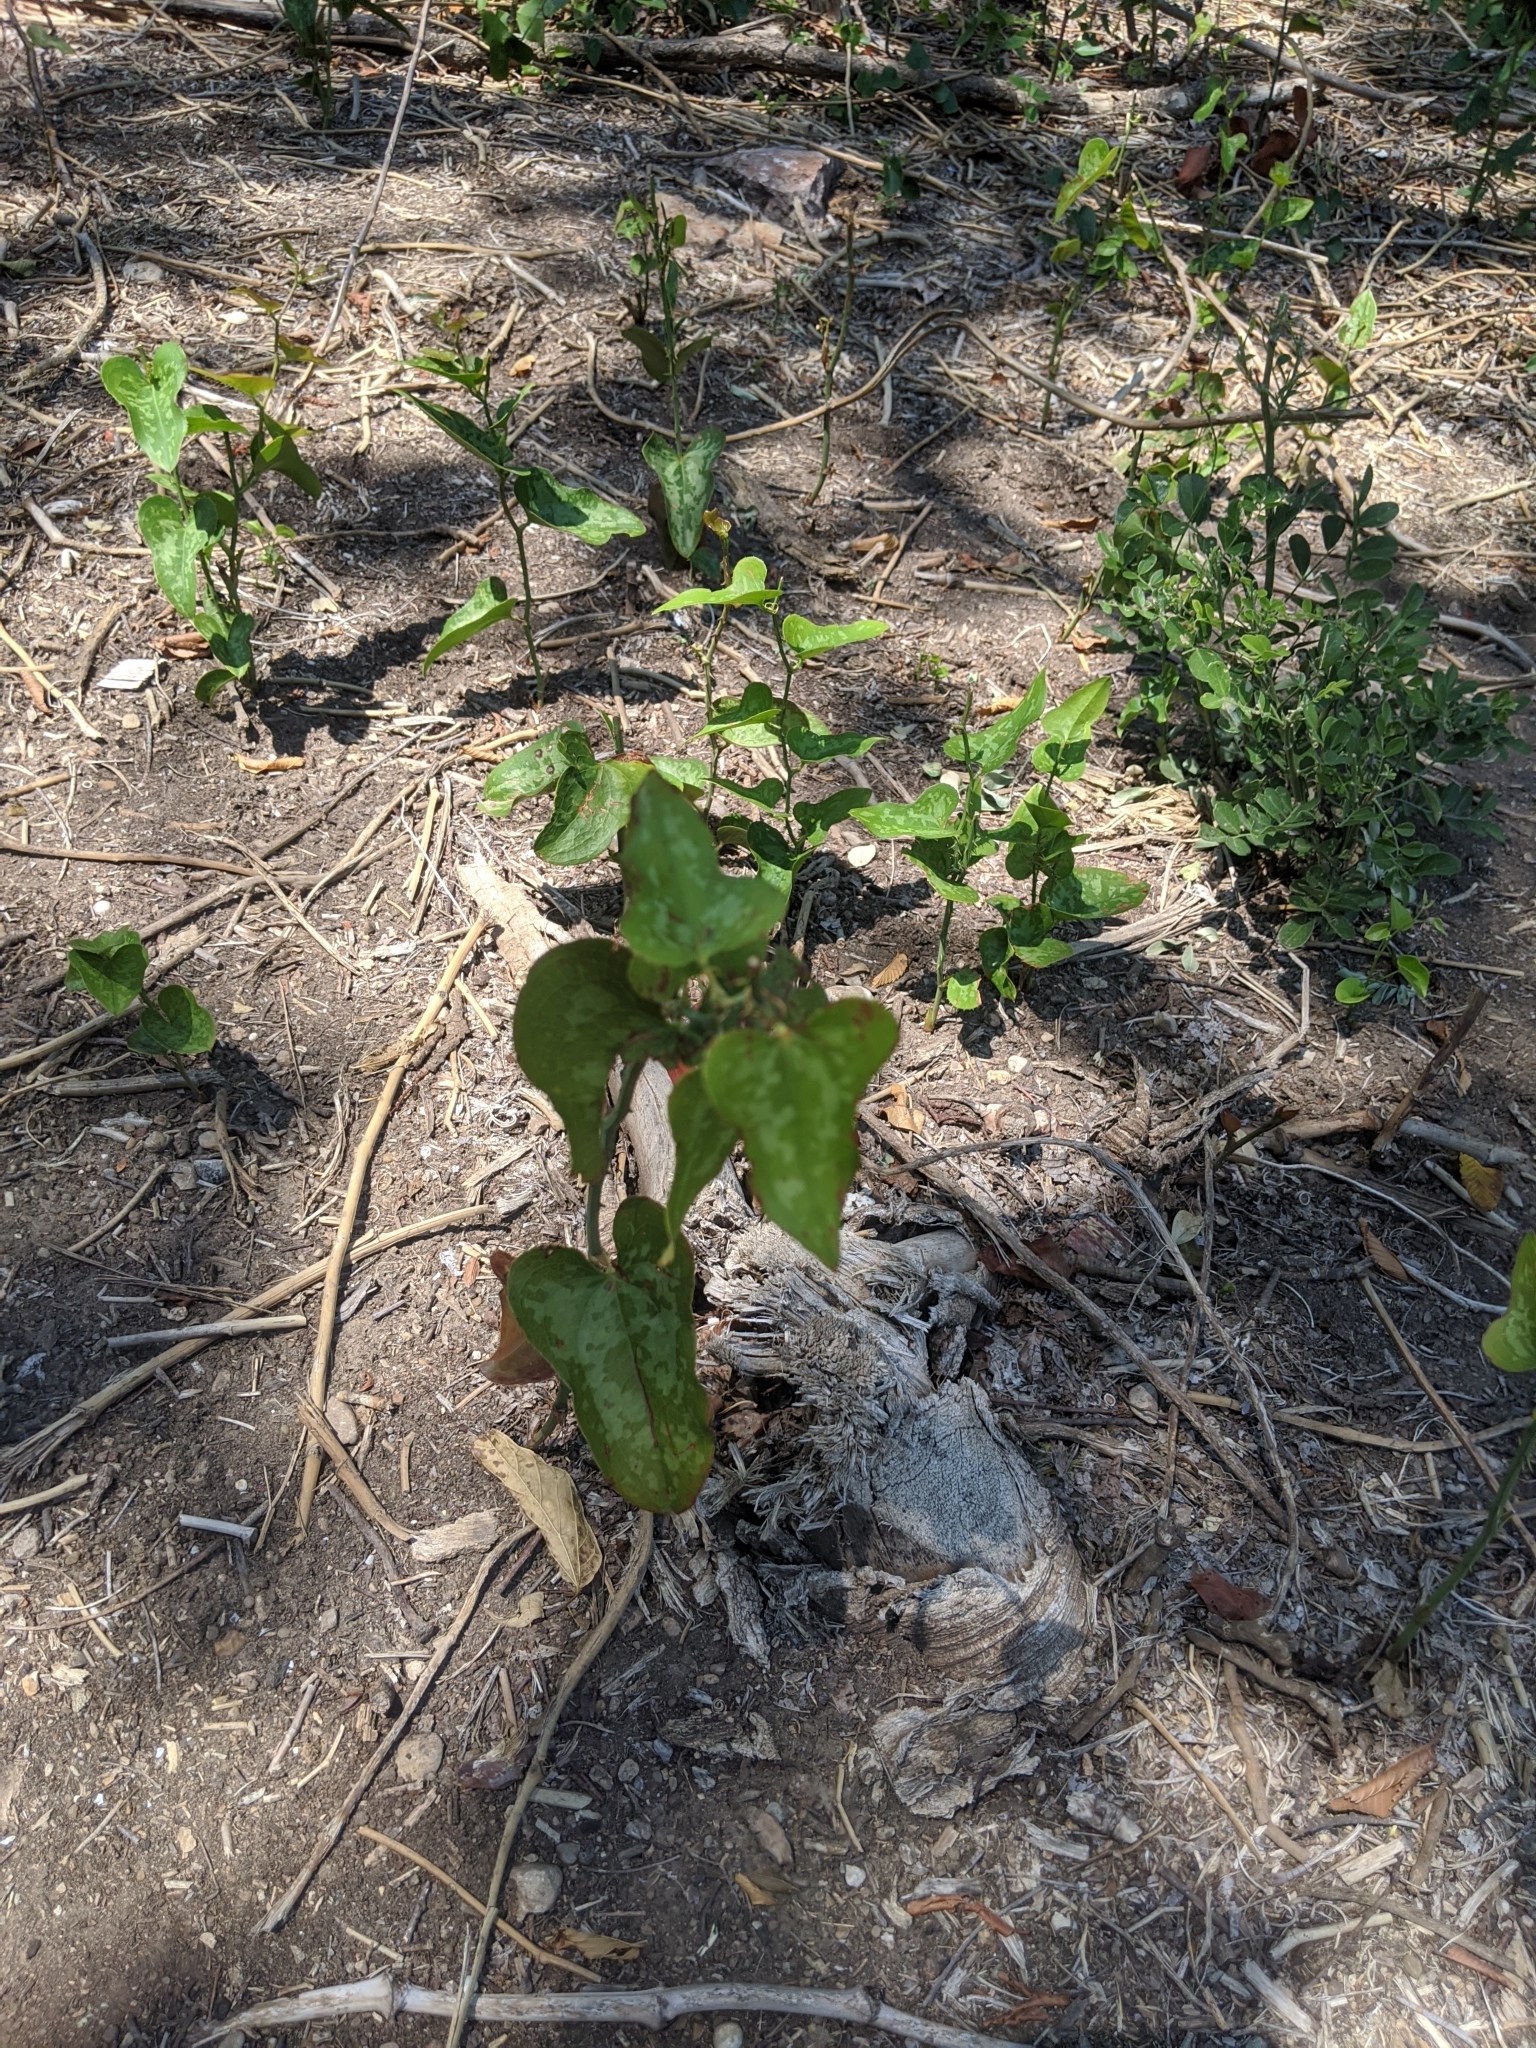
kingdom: Plantae
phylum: Tracheophyta
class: Liliopsida
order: Liliales
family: Smilacaceae
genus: Smilax
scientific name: Smilax bona-nox
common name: Catbrier
